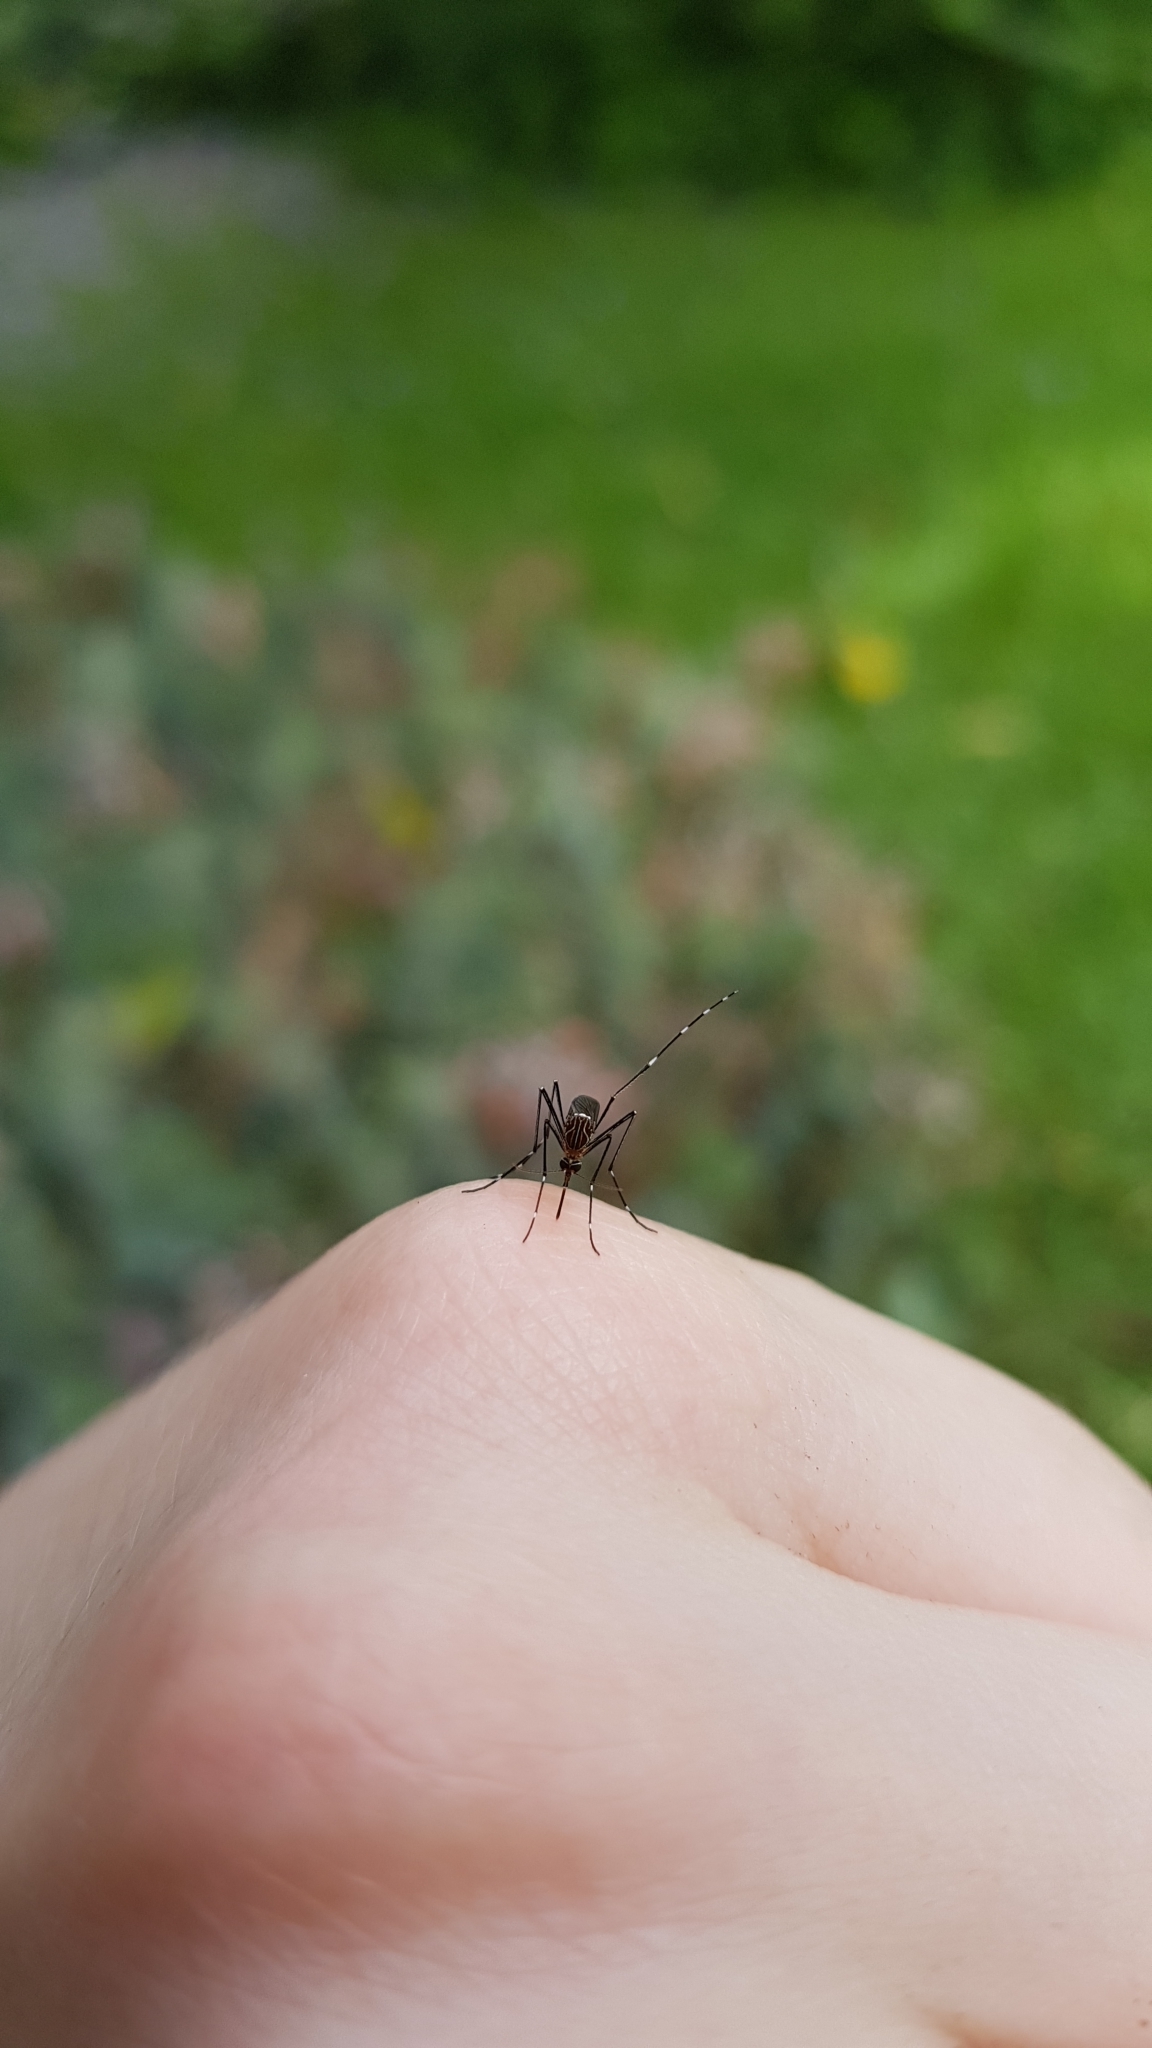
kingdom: Animalia
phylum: Arthropoda
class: Insecta
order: Diptera
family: Culicidae
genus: Aedes
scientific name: Aedes notoscriptus
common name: Australian backyard mosquito
